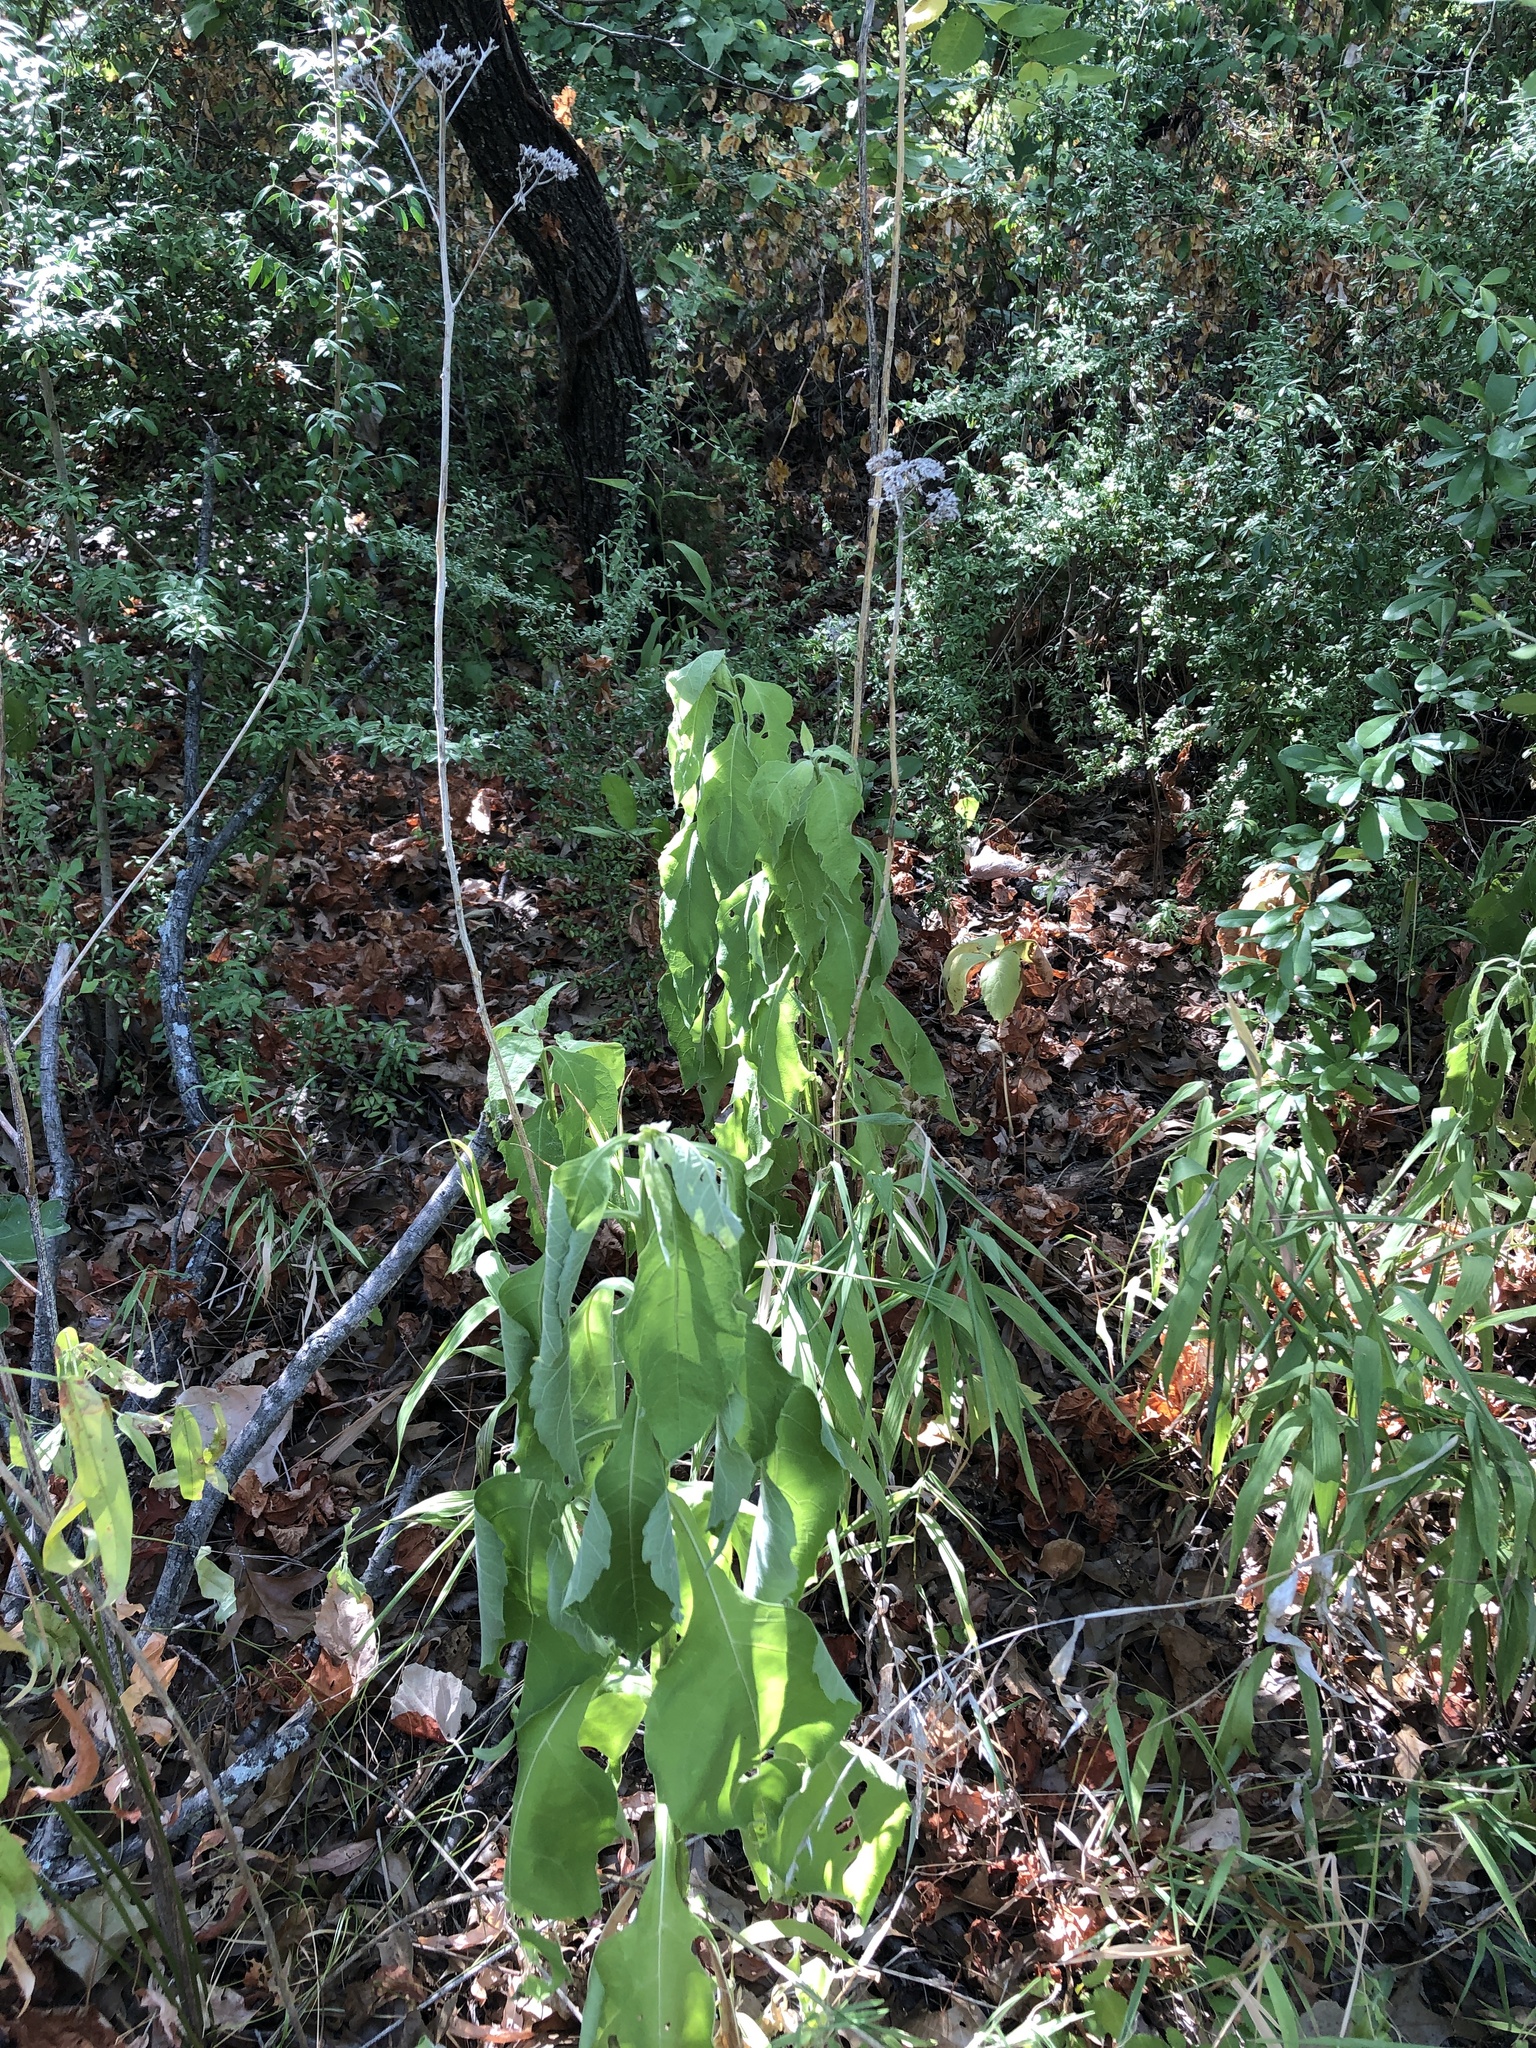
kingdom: Plantae
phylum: Tracheophyta
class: Magnoliopsida
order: Asterales
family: Asteraceae
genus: Verbesina
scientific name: Verbesina virginica
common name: Frostweed
